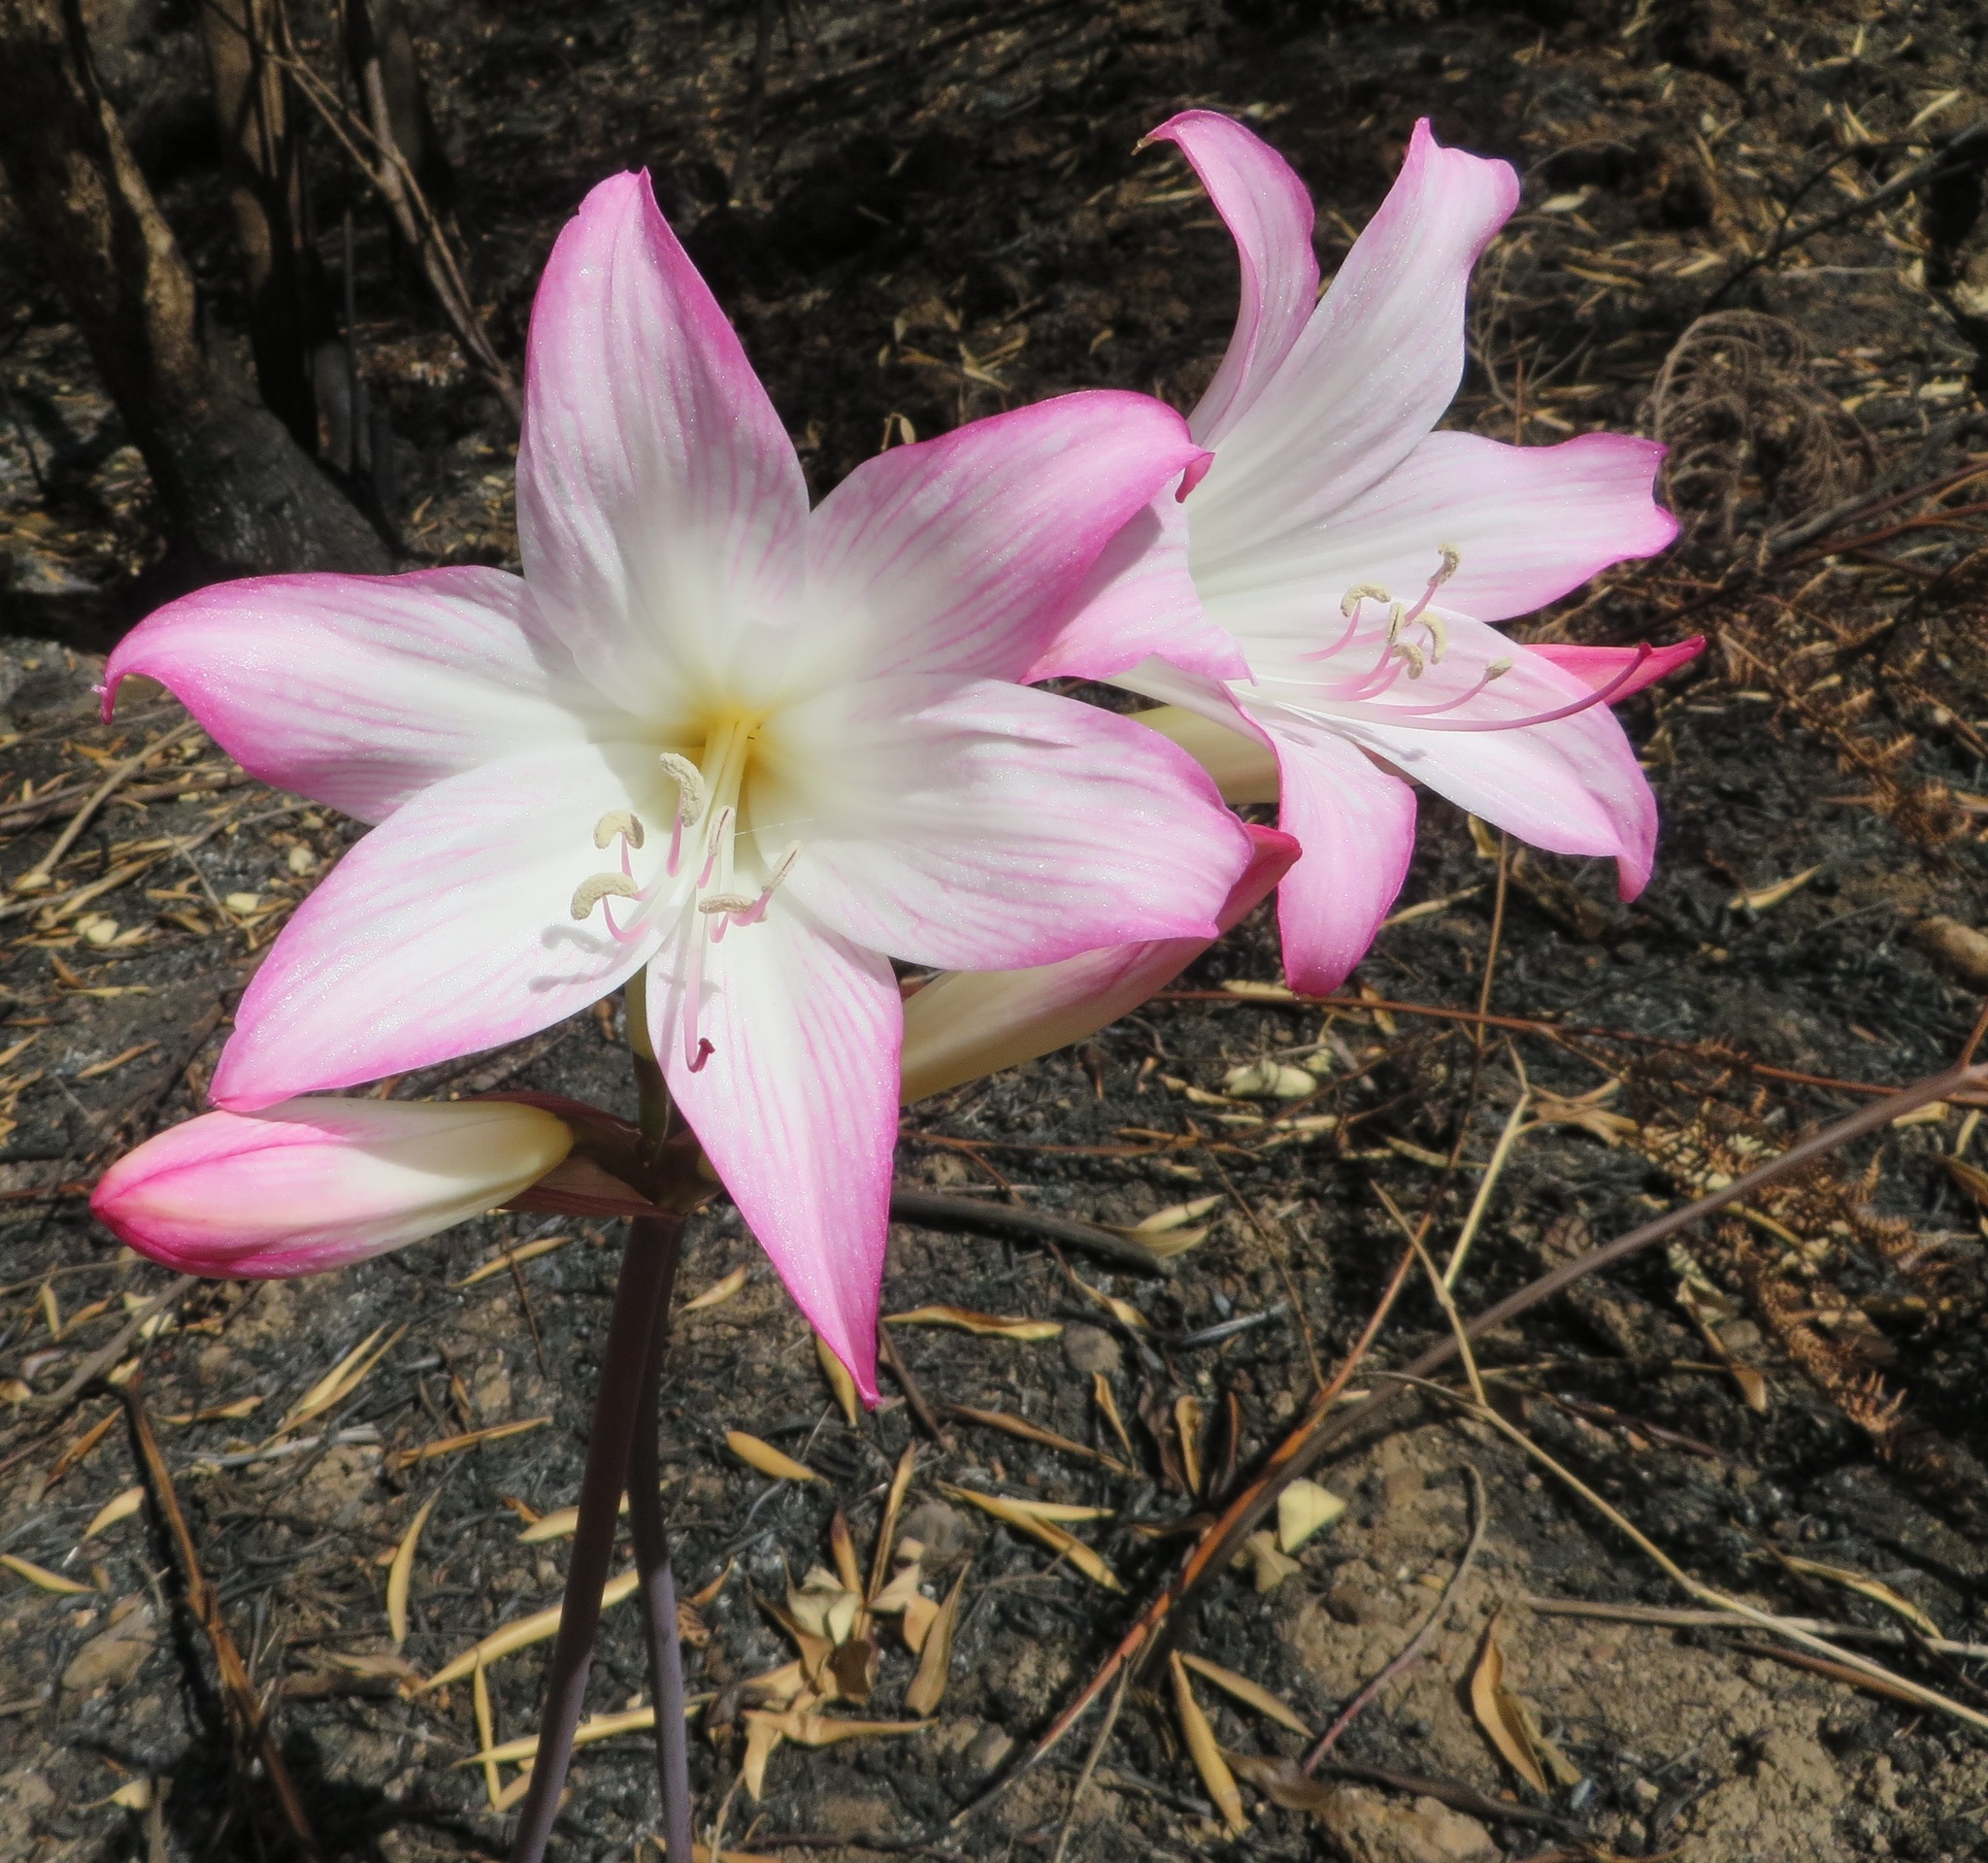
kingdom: Plantae
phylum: Tracheophyta
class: Liliopsida
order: Asparagales
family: Amaryllidaceae
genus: Amaryllis
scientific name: Amaryllis belladonna
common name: Jersey lily
